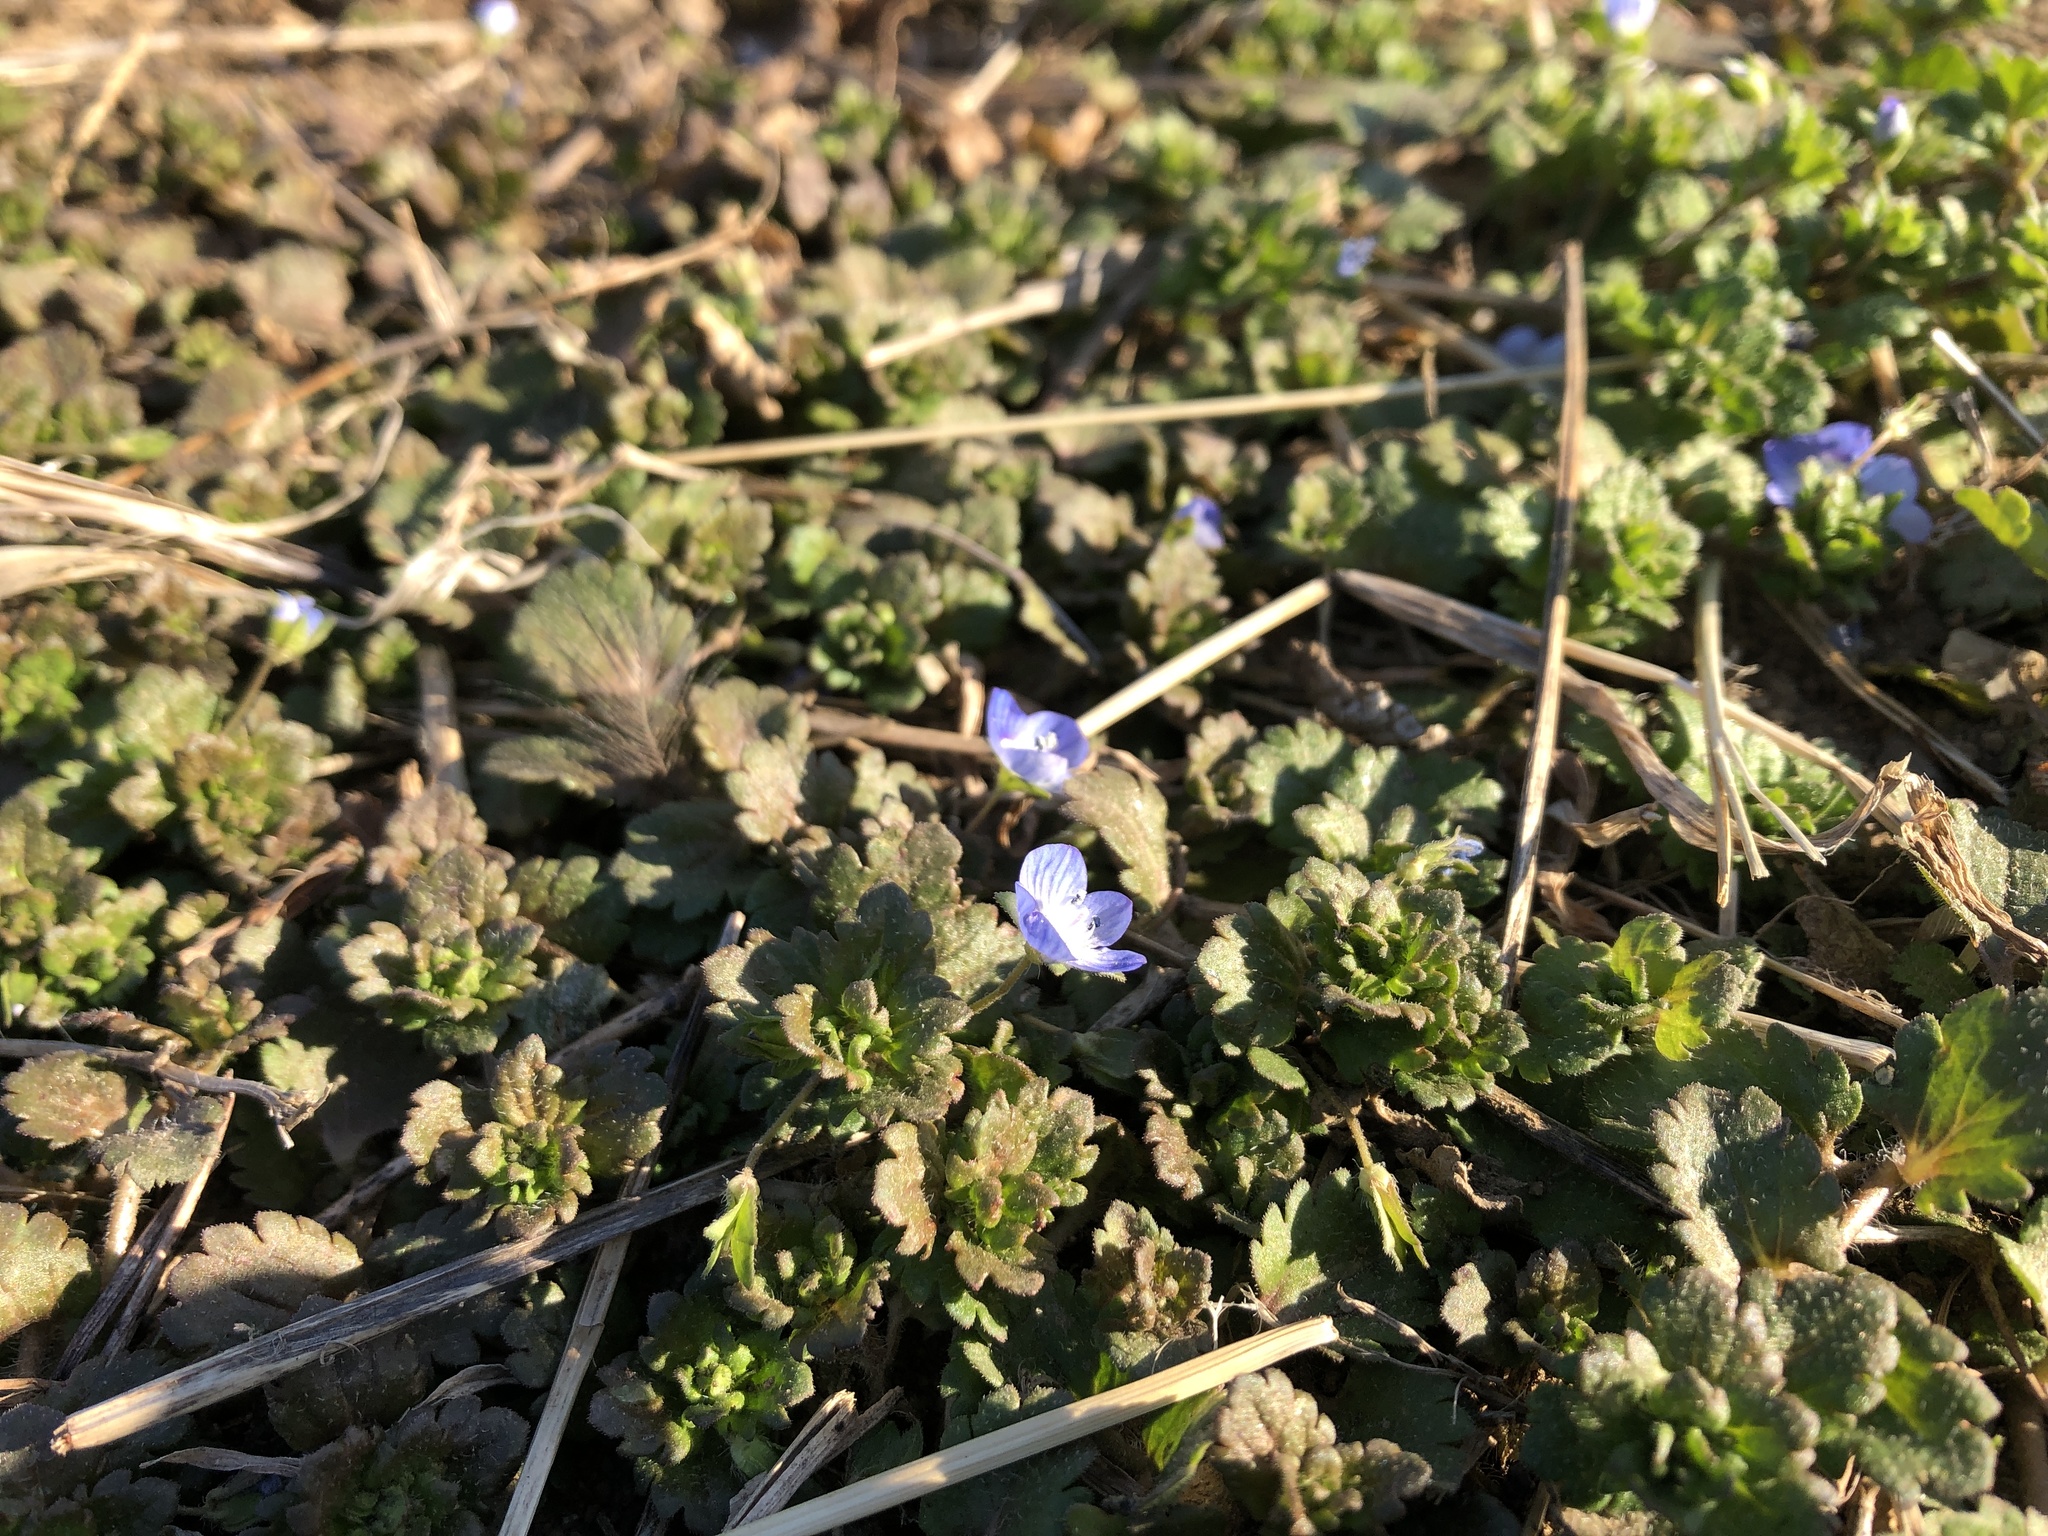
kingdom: Plantae
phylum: Tracheophyta
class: Magnoliopsida
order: Lamiales
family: Plantaginaceae
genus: Veronica
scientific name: Veronica persica
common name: Common field-speedwell
